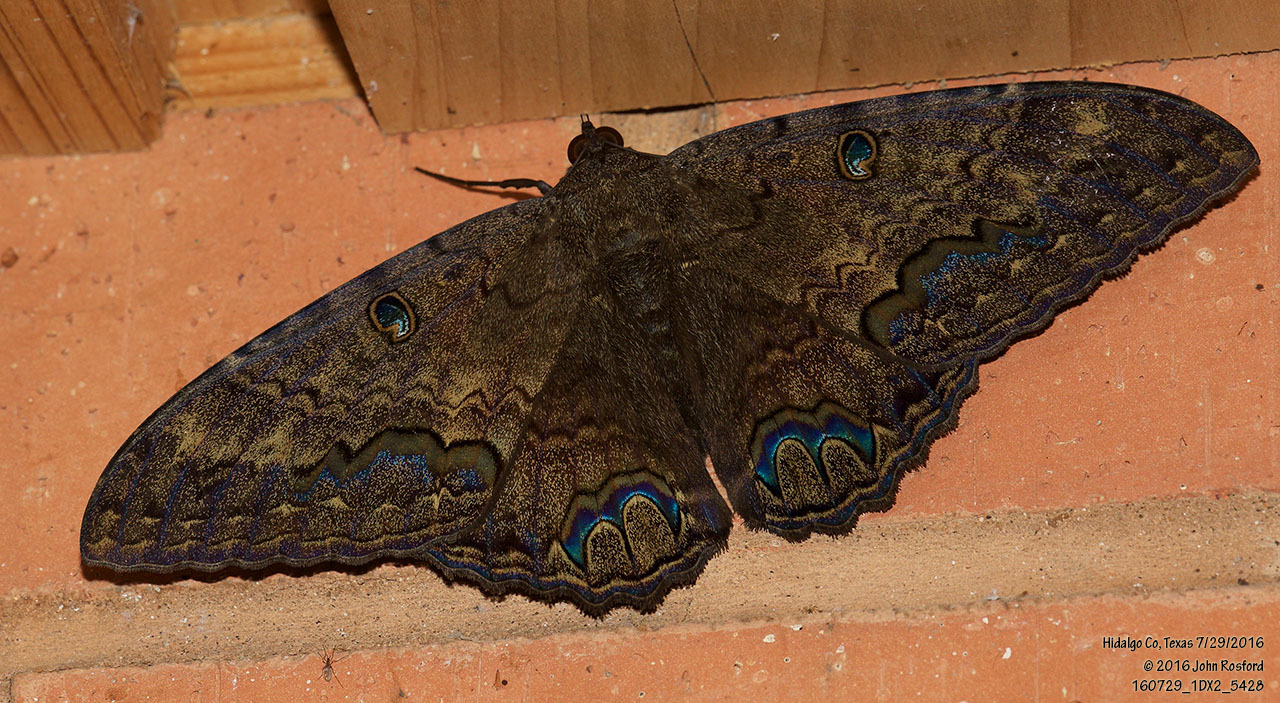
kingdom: Animalia
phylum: Arthropoda
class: Insecta
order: Lepidoptera
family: Erebidae
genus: Ascalapha
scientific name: Ascalapha odorata
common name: Black witch
